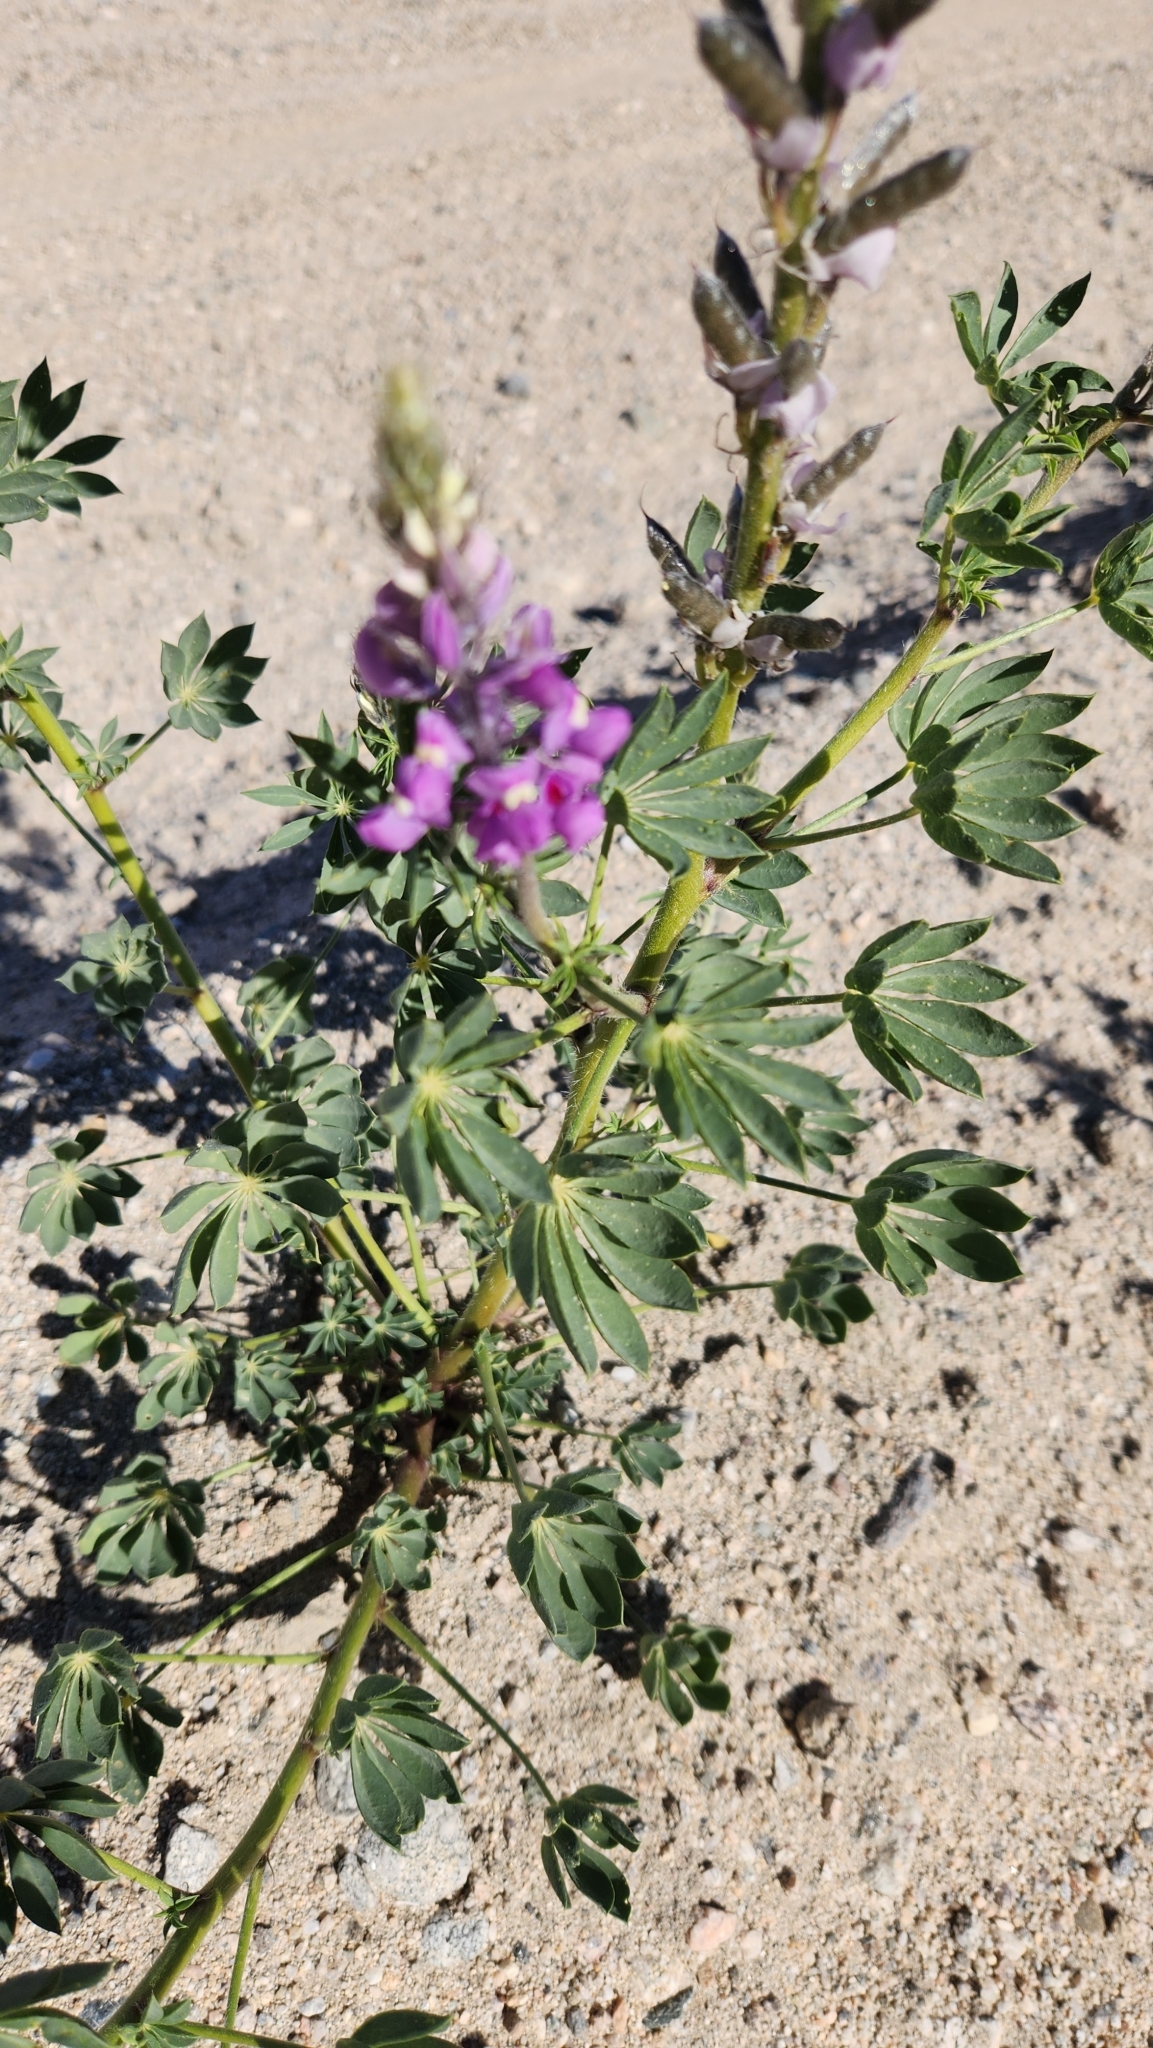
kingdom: Plantae
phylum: Tracheophyta
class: Magnoliopsida
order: Fabales
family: Fabaceae
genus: Lupinus
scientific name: Lupinus arizonicus
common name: Arizona lupine
